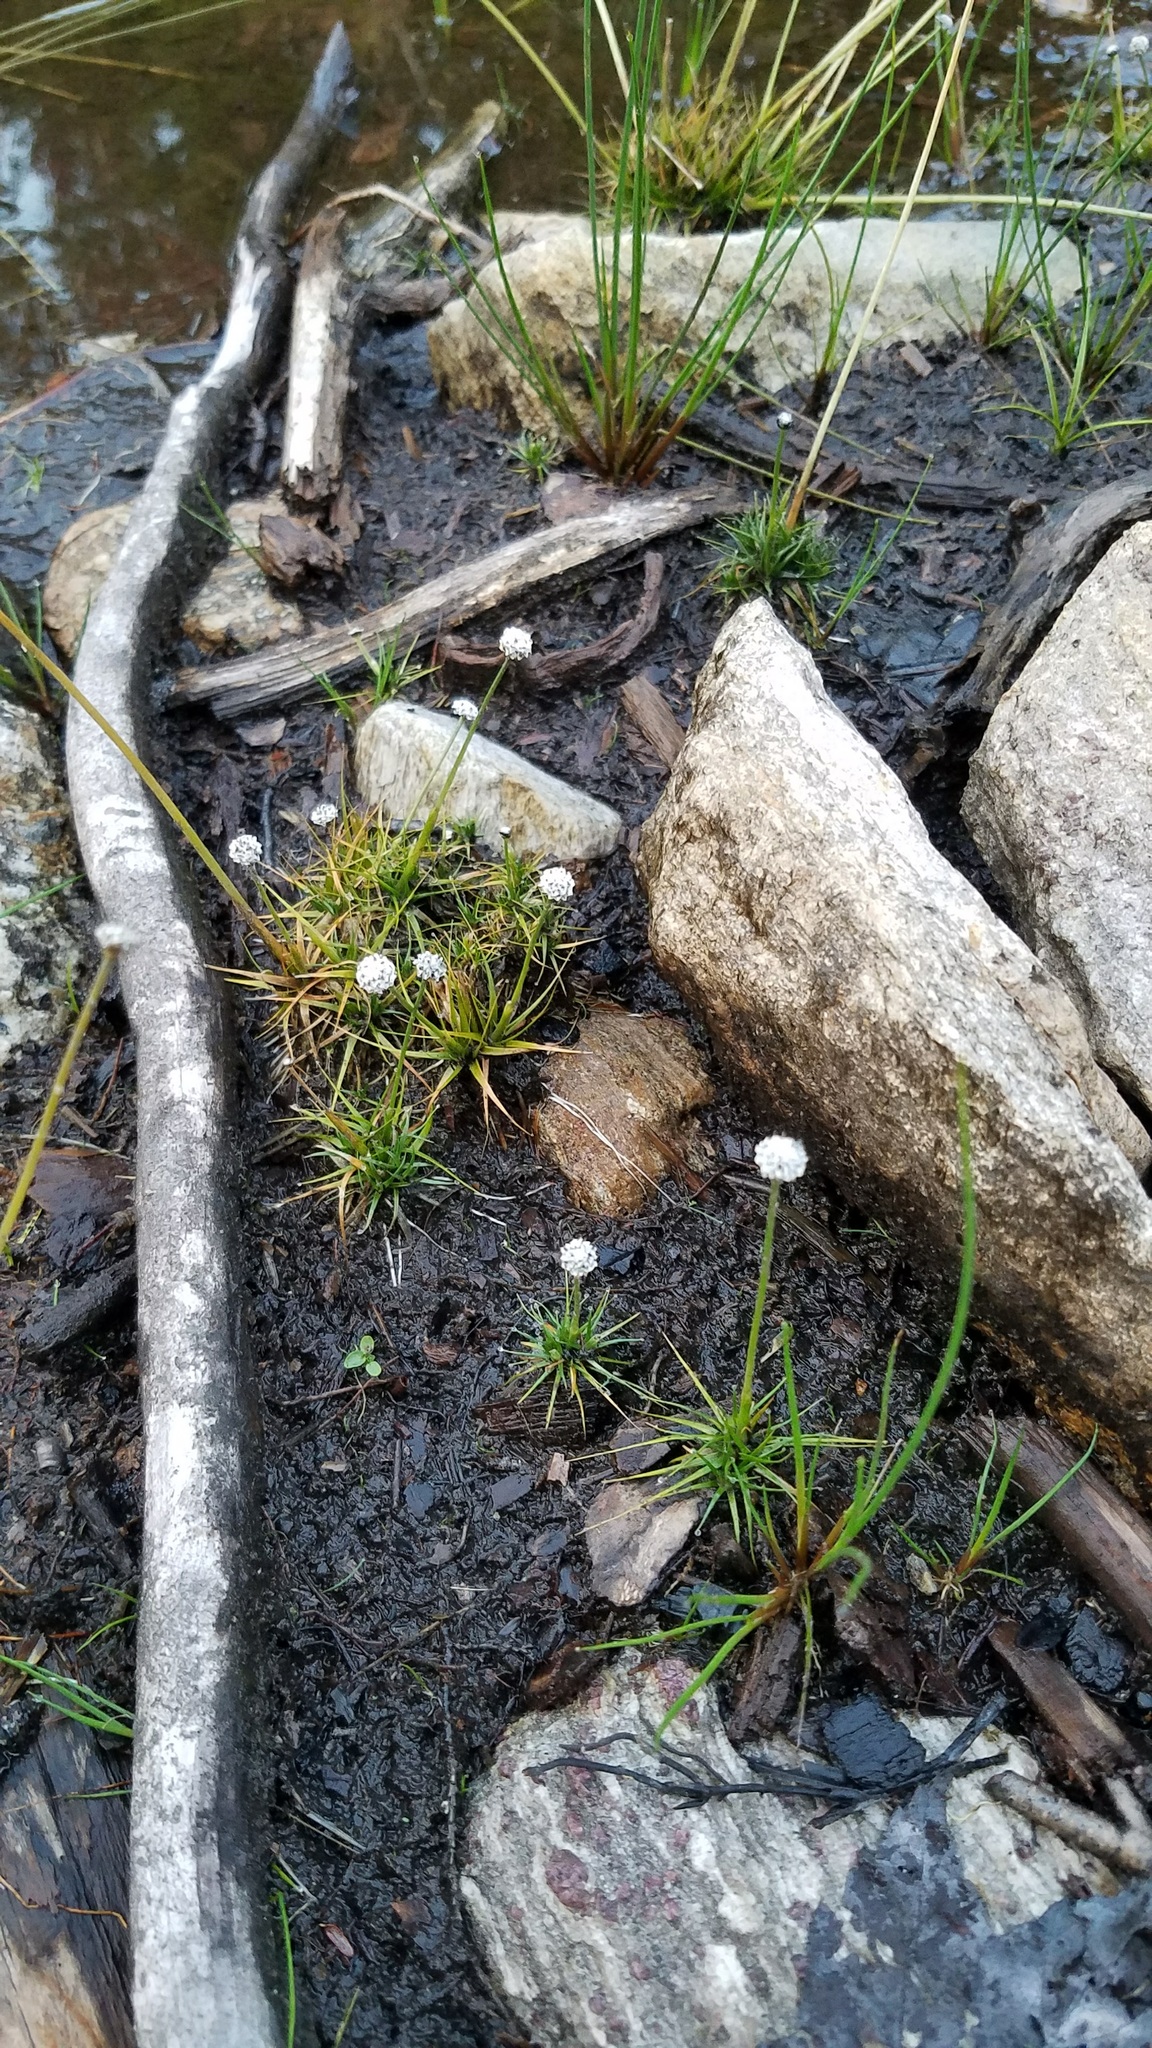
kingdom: Plantae
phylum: Tracheophyta
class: Liliopsida
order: Poales
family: Eriocaulaceae
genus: Eriocaulon
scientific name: Eriocaulon aquaticum
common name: Pipewort
